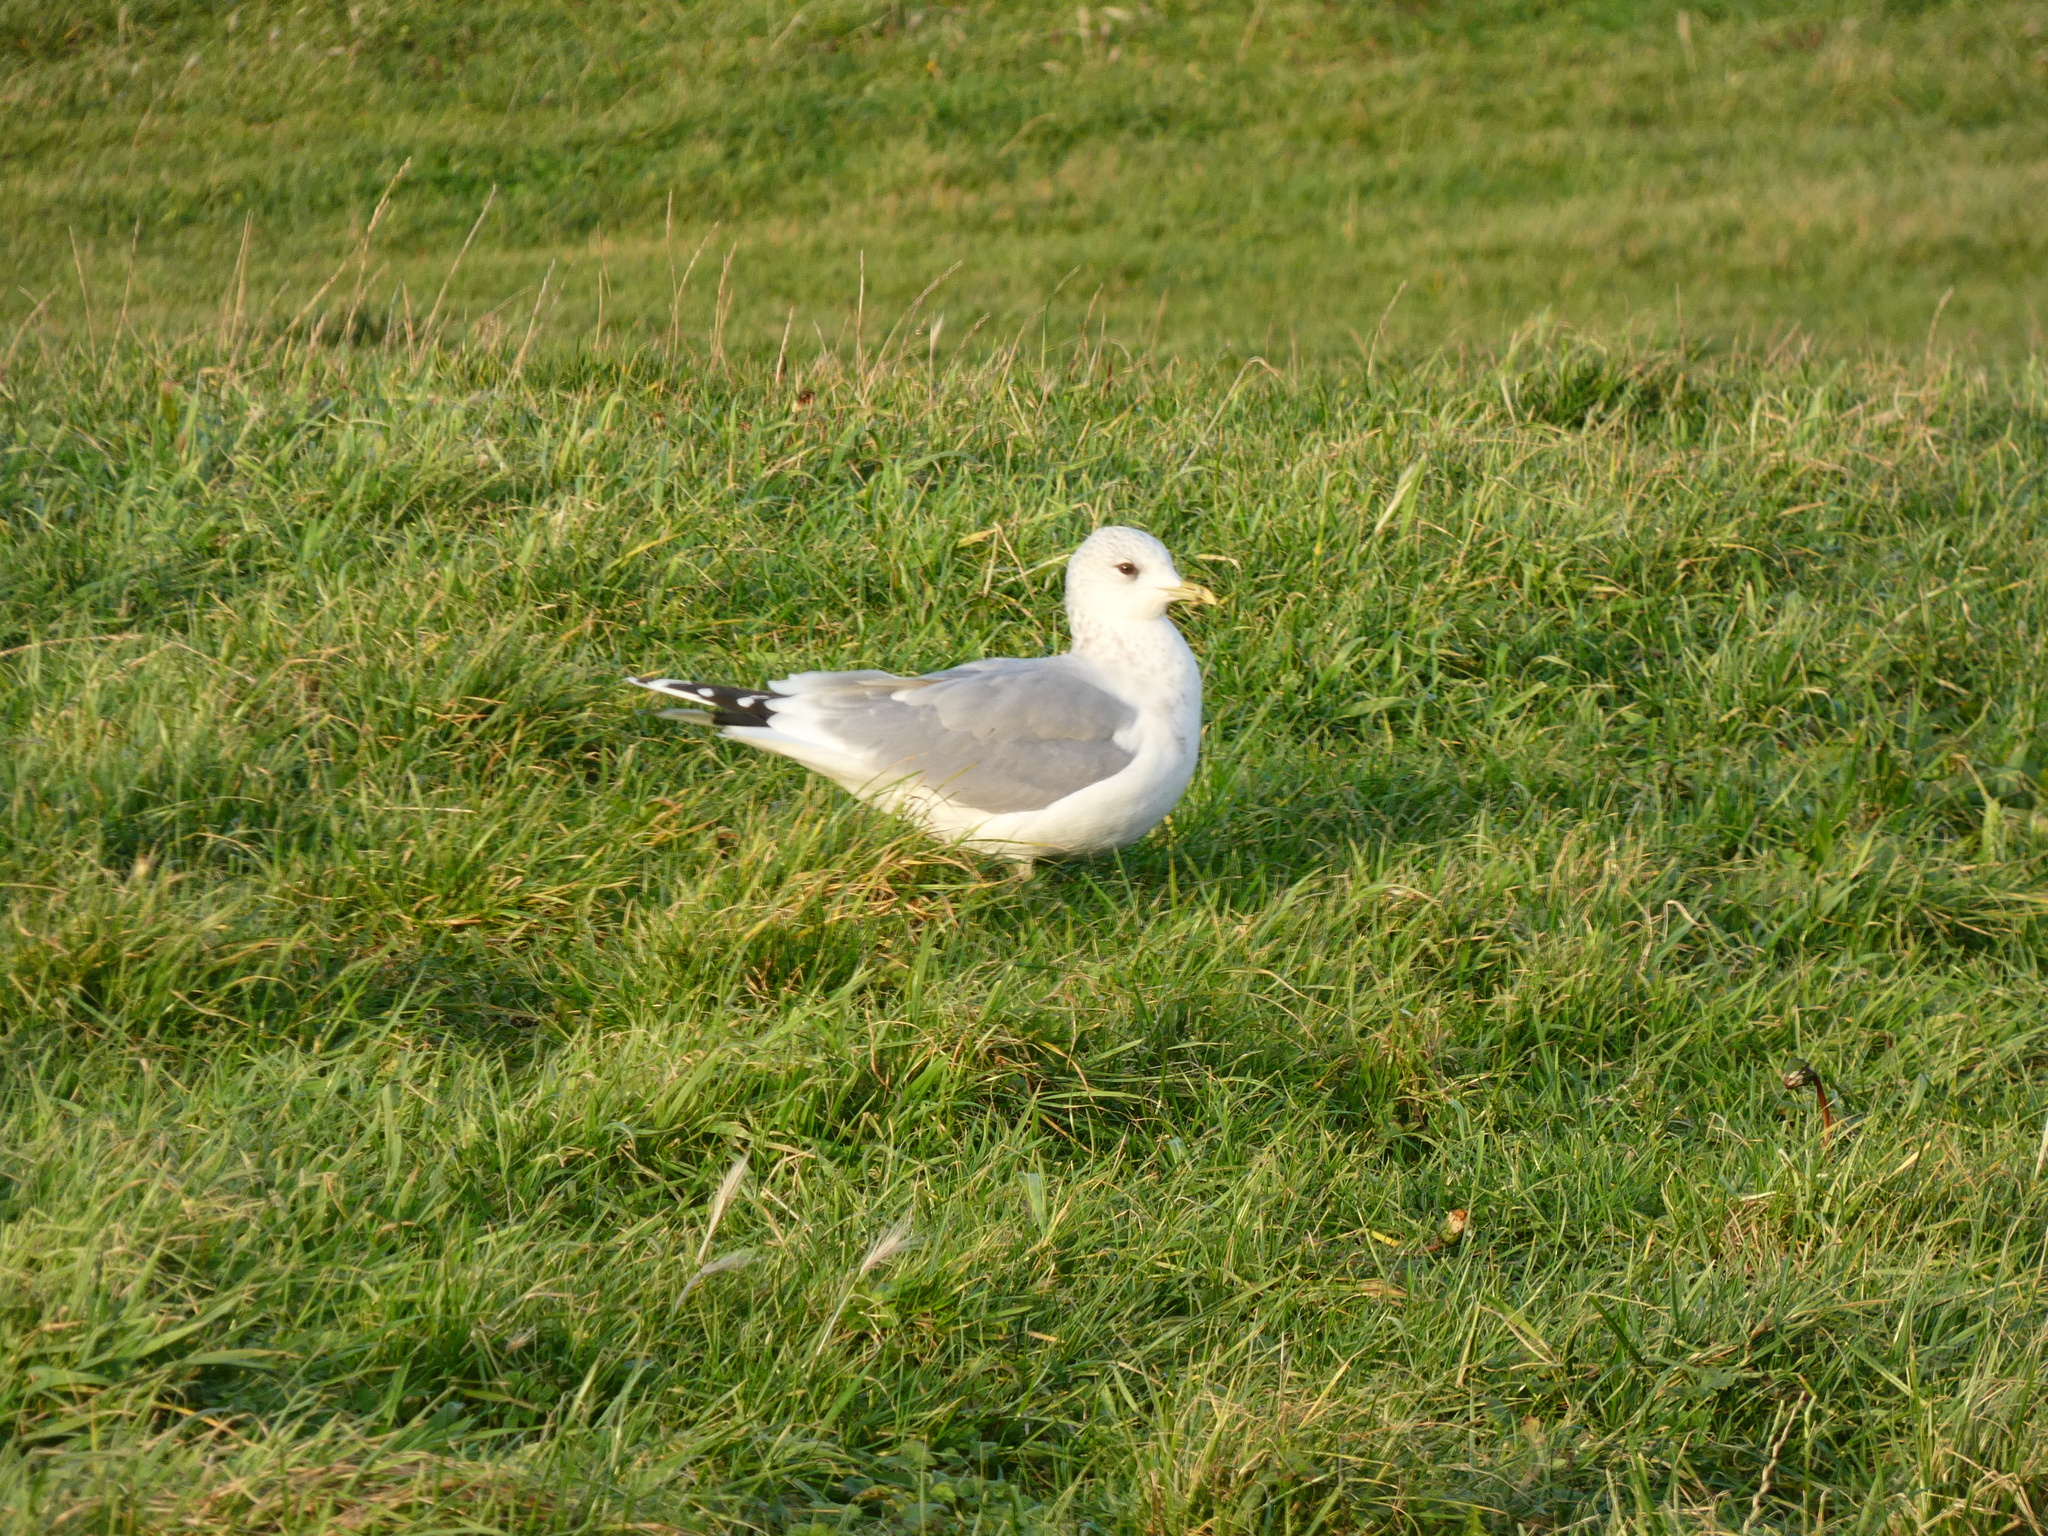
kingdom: Animalia
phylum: Chordata
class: Aves
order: Charadriiformes
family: Laridae
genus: Larus
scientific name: Larus canus
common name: Mew gull
